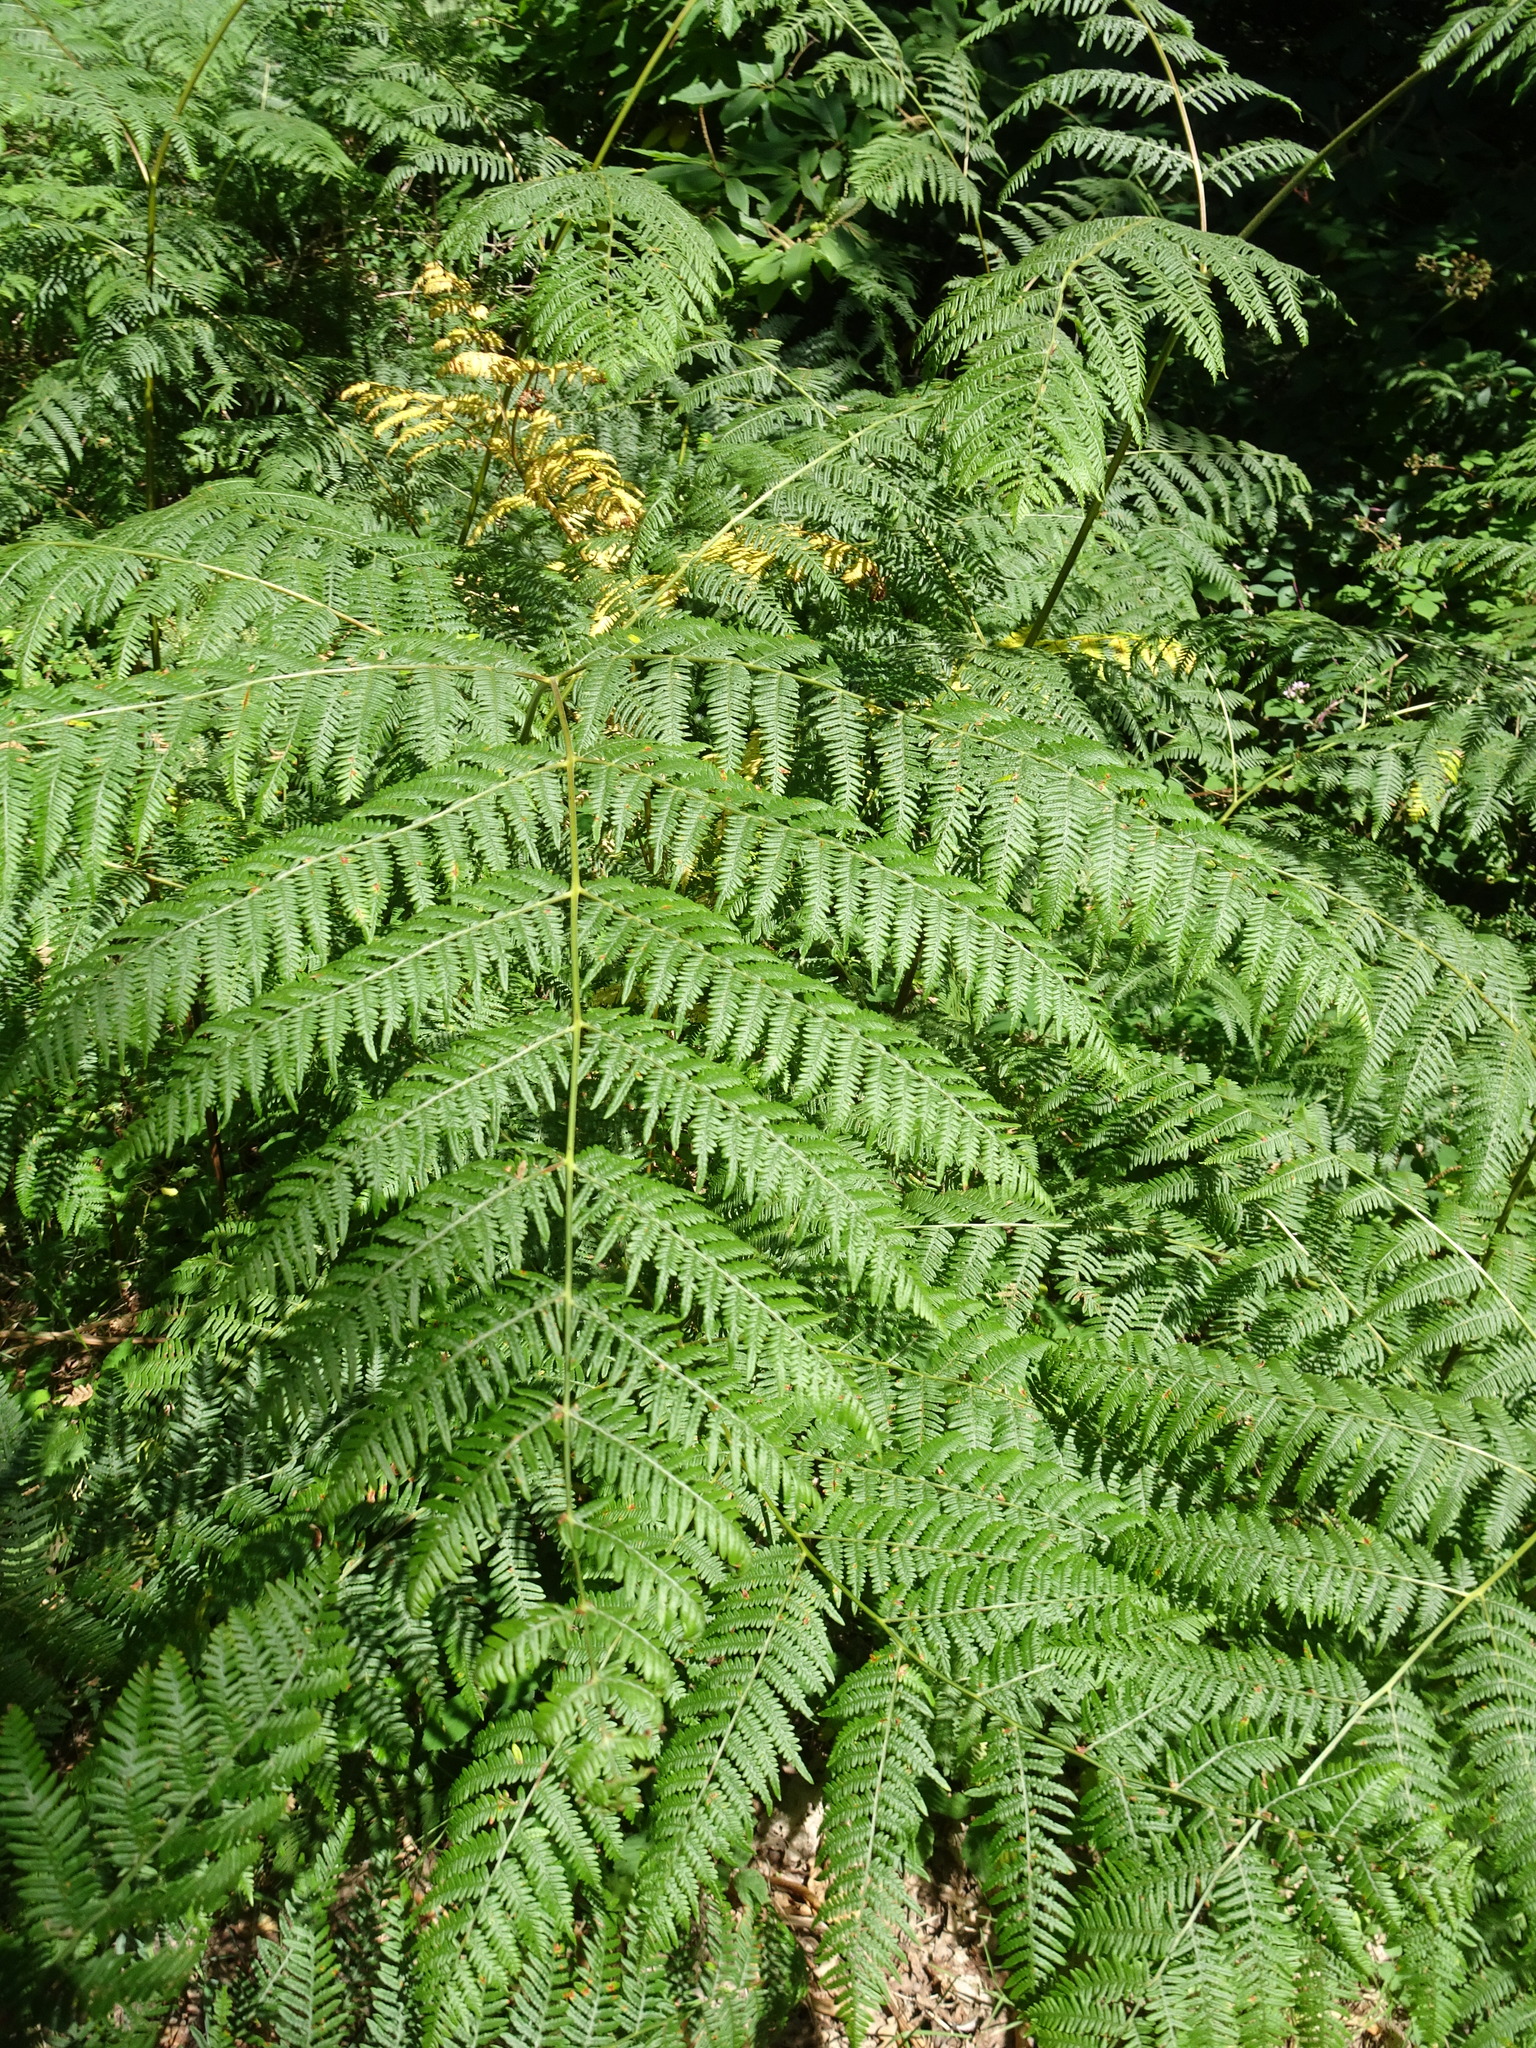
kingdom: Plantae
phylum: Tracheophyta
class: Polypodiopsida
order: Polypodiales
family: Dennstaedtiaceae
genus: Pteridium
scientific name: Pteridium aquilinum
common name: Bracken
